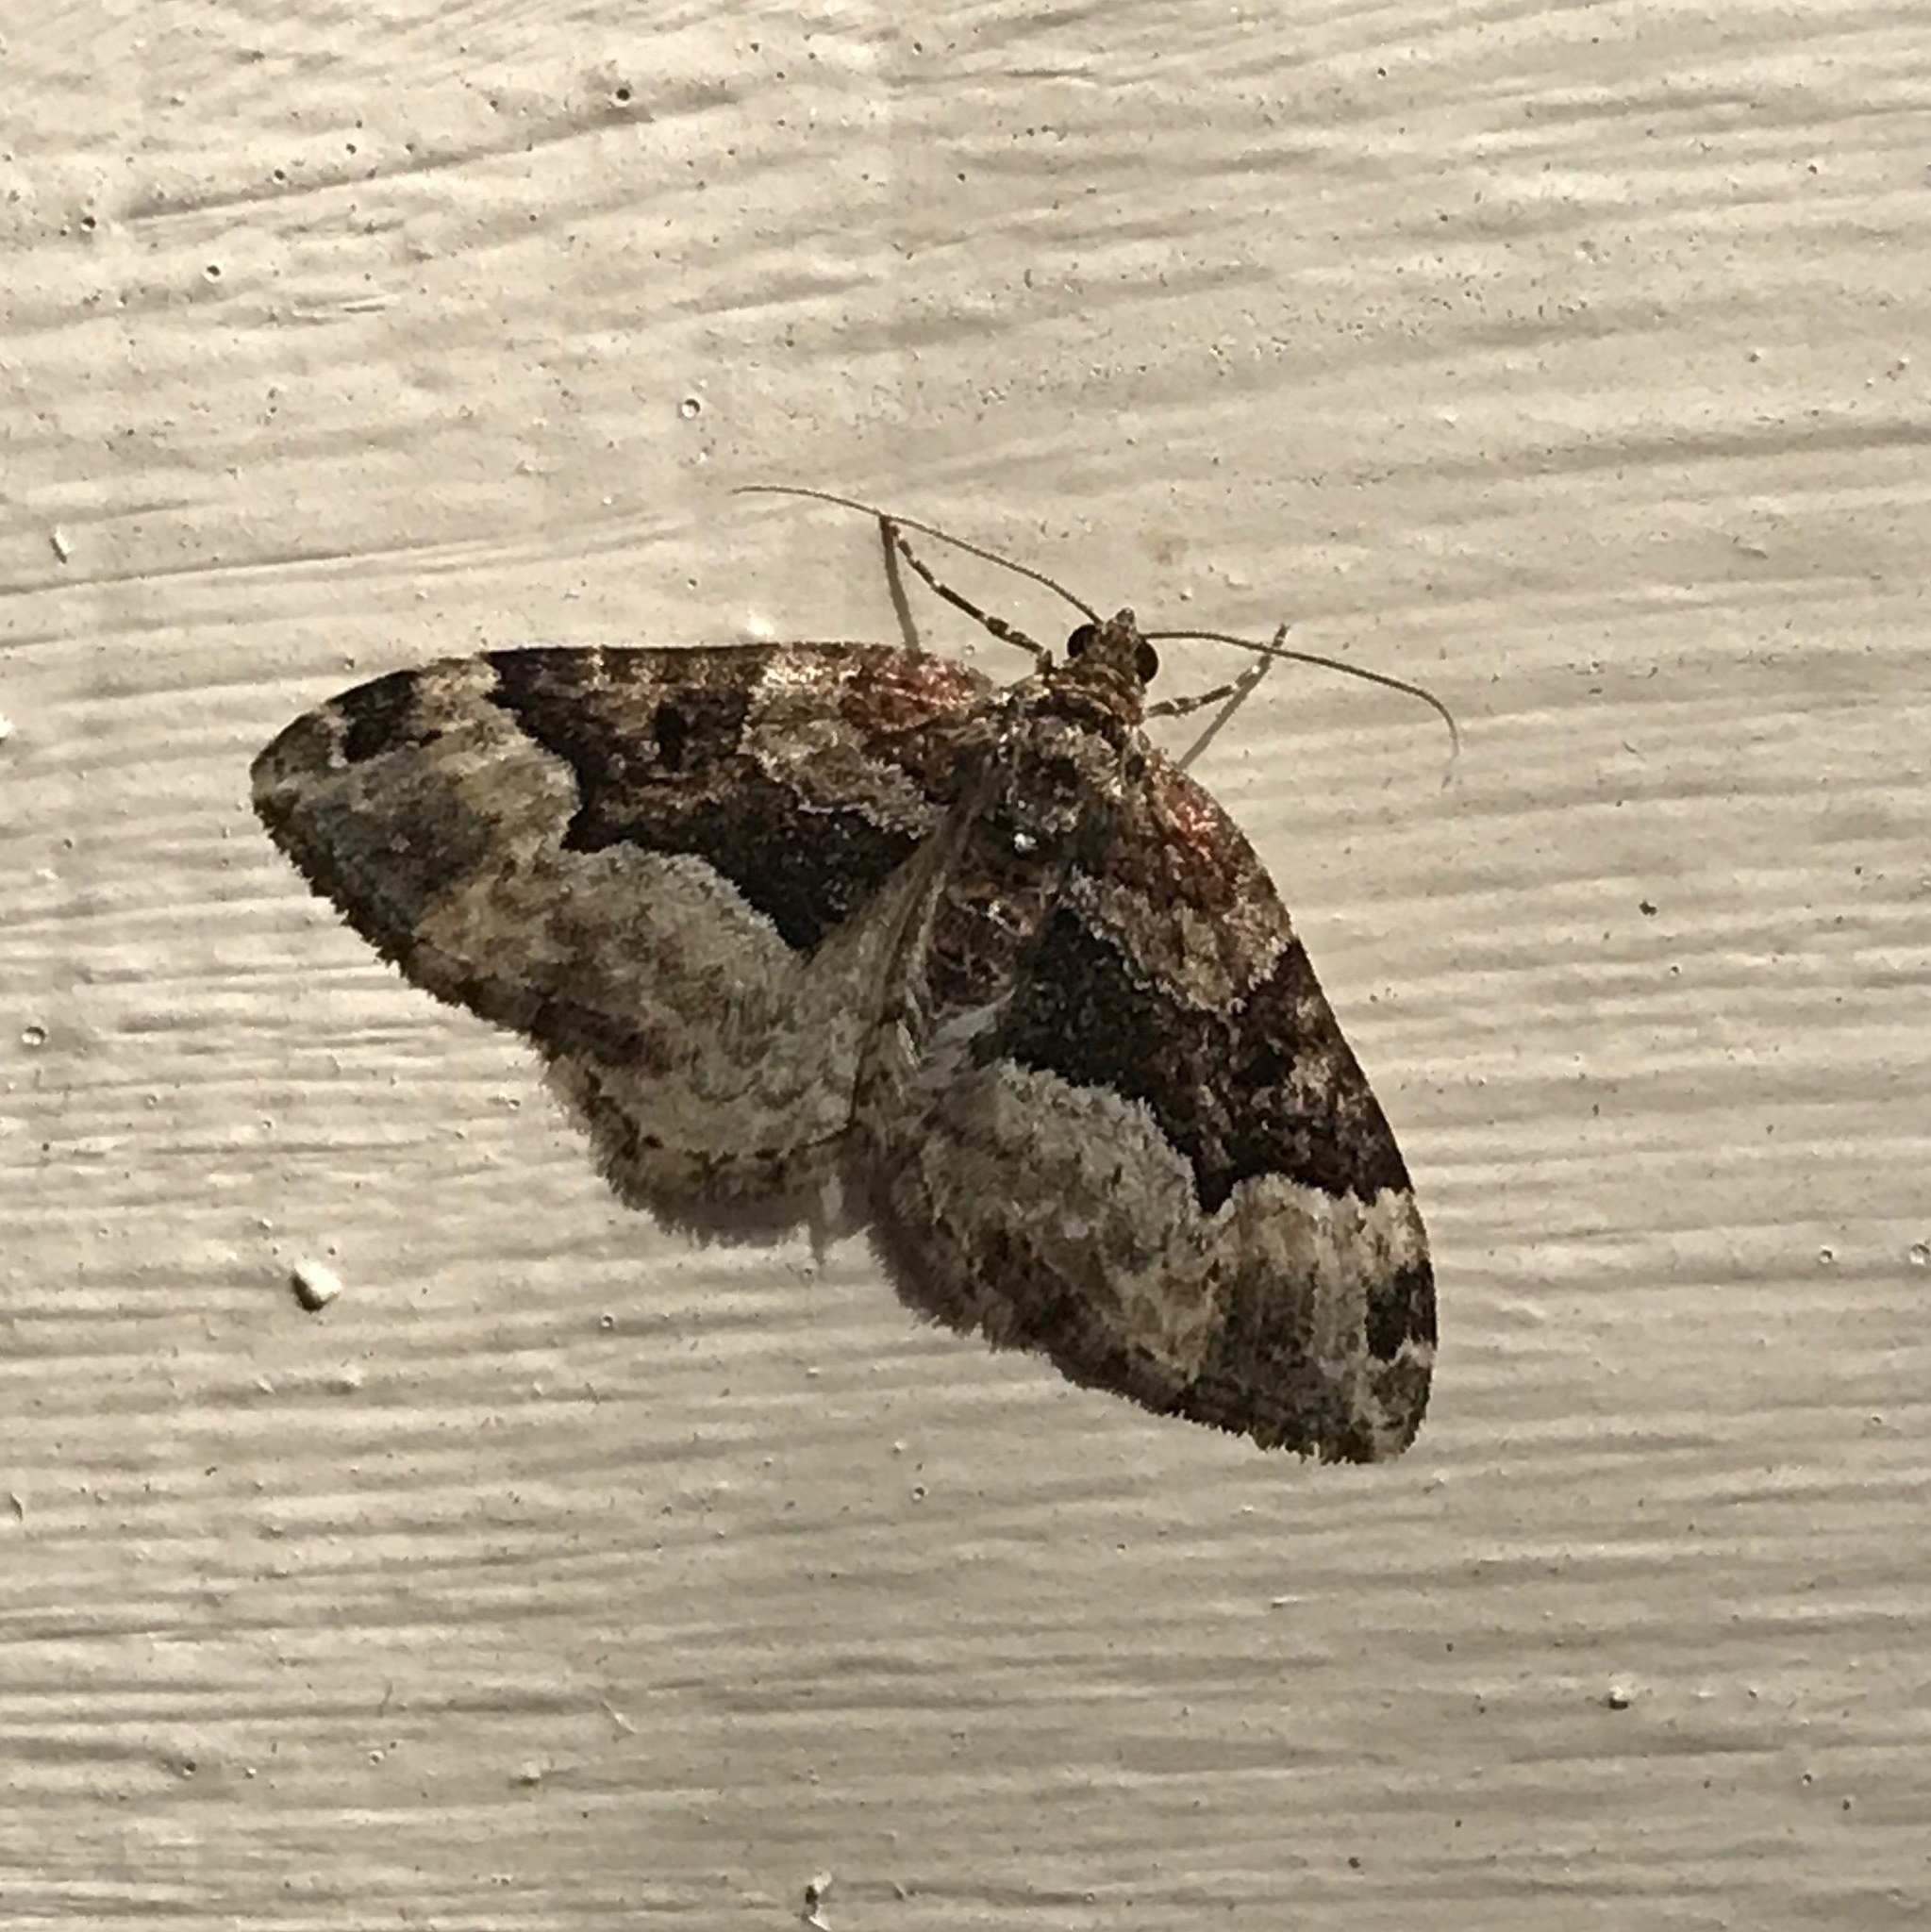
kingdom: Animalia
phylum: Arthropoda
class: Insecta
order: Lepidoptera
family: Geometridae
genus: Euphyia
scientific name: Euphyia intermediata
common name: Sharp-angled carpet
